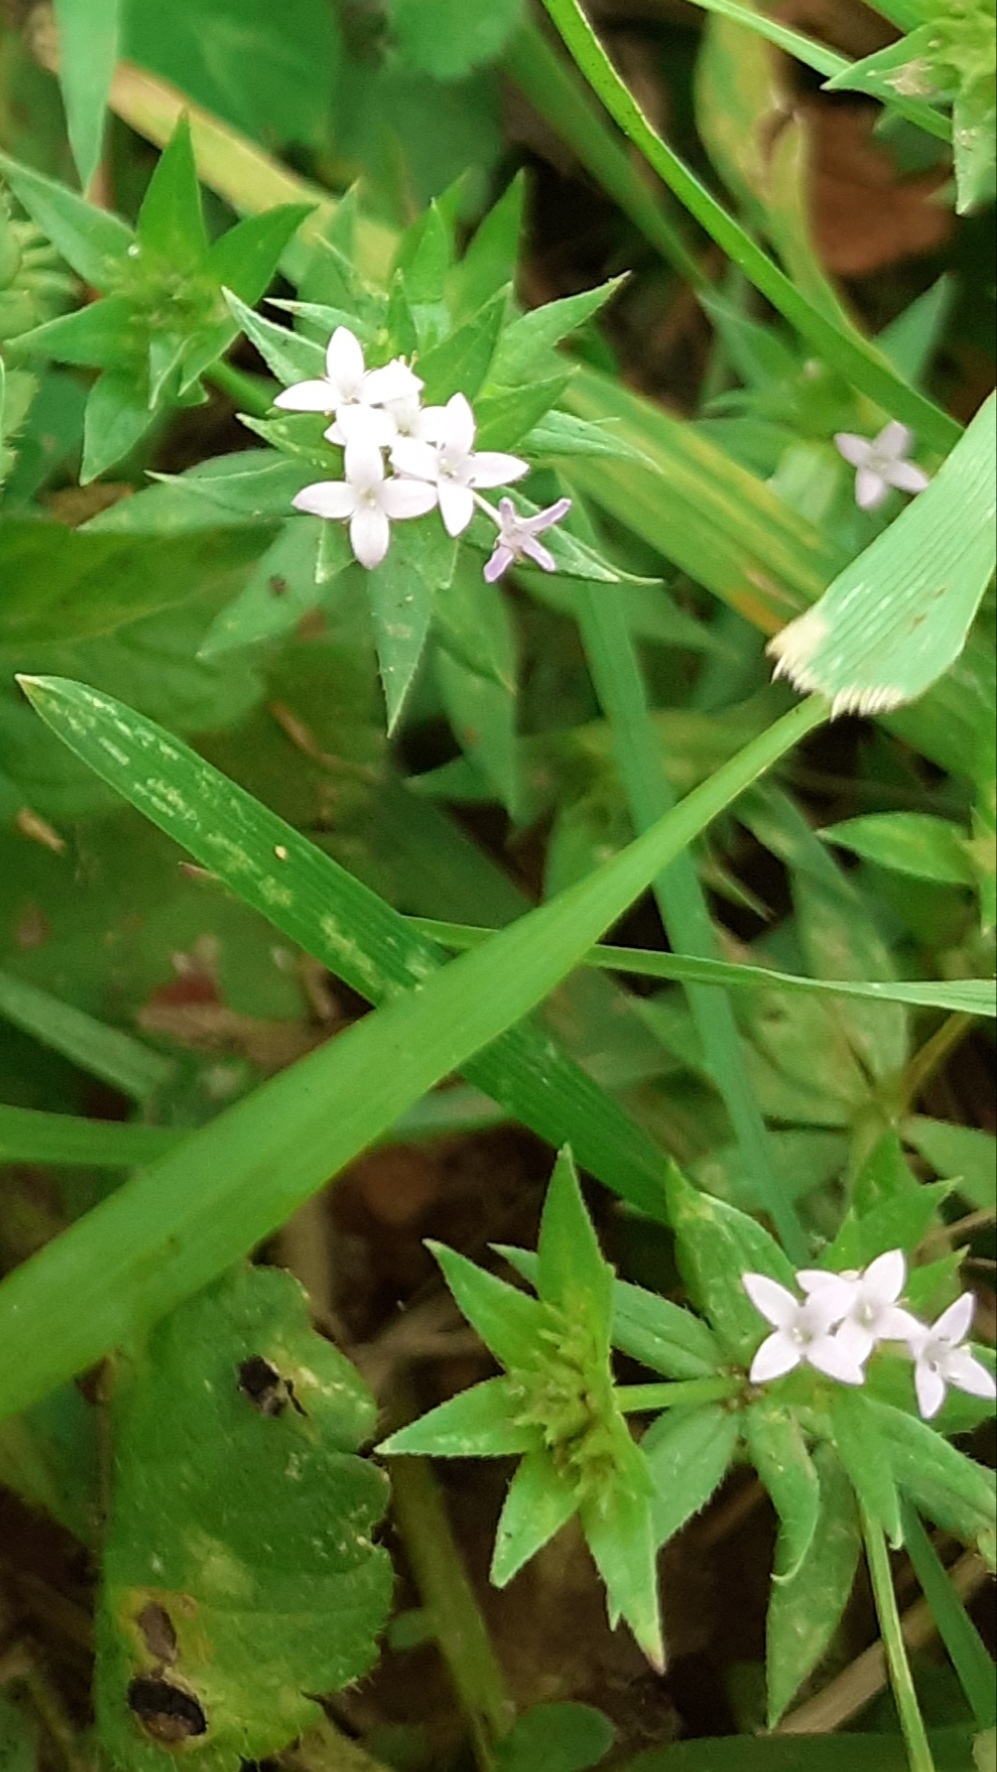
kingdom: Plantae
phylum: Tracheophyta
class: Magnoliopsida
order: Gentianales
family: Rubiaceae
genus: Sherardia
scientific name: Sherardia arvensis
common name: Field madder
